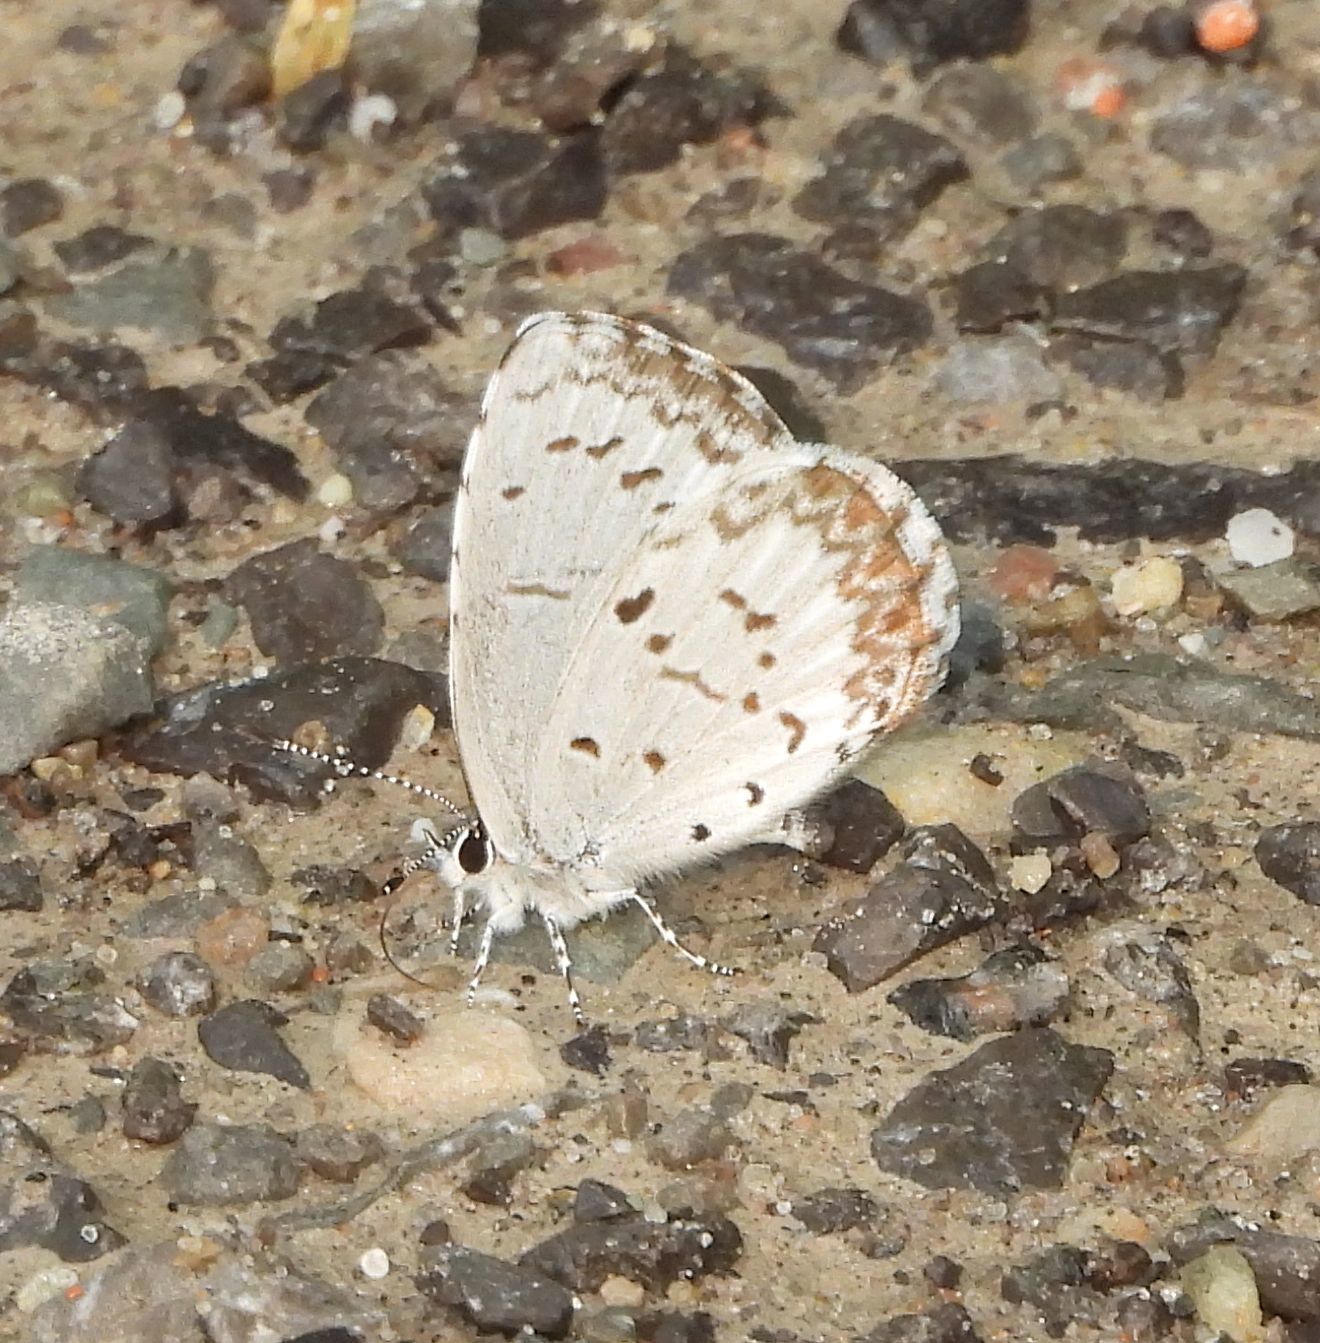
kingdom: Animalia
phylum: Arthropoda
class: Insecta
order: Lepidoptera
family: Lycaenidae
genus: Celastrina
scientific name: Celastrina lucia
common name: Lucia azure
